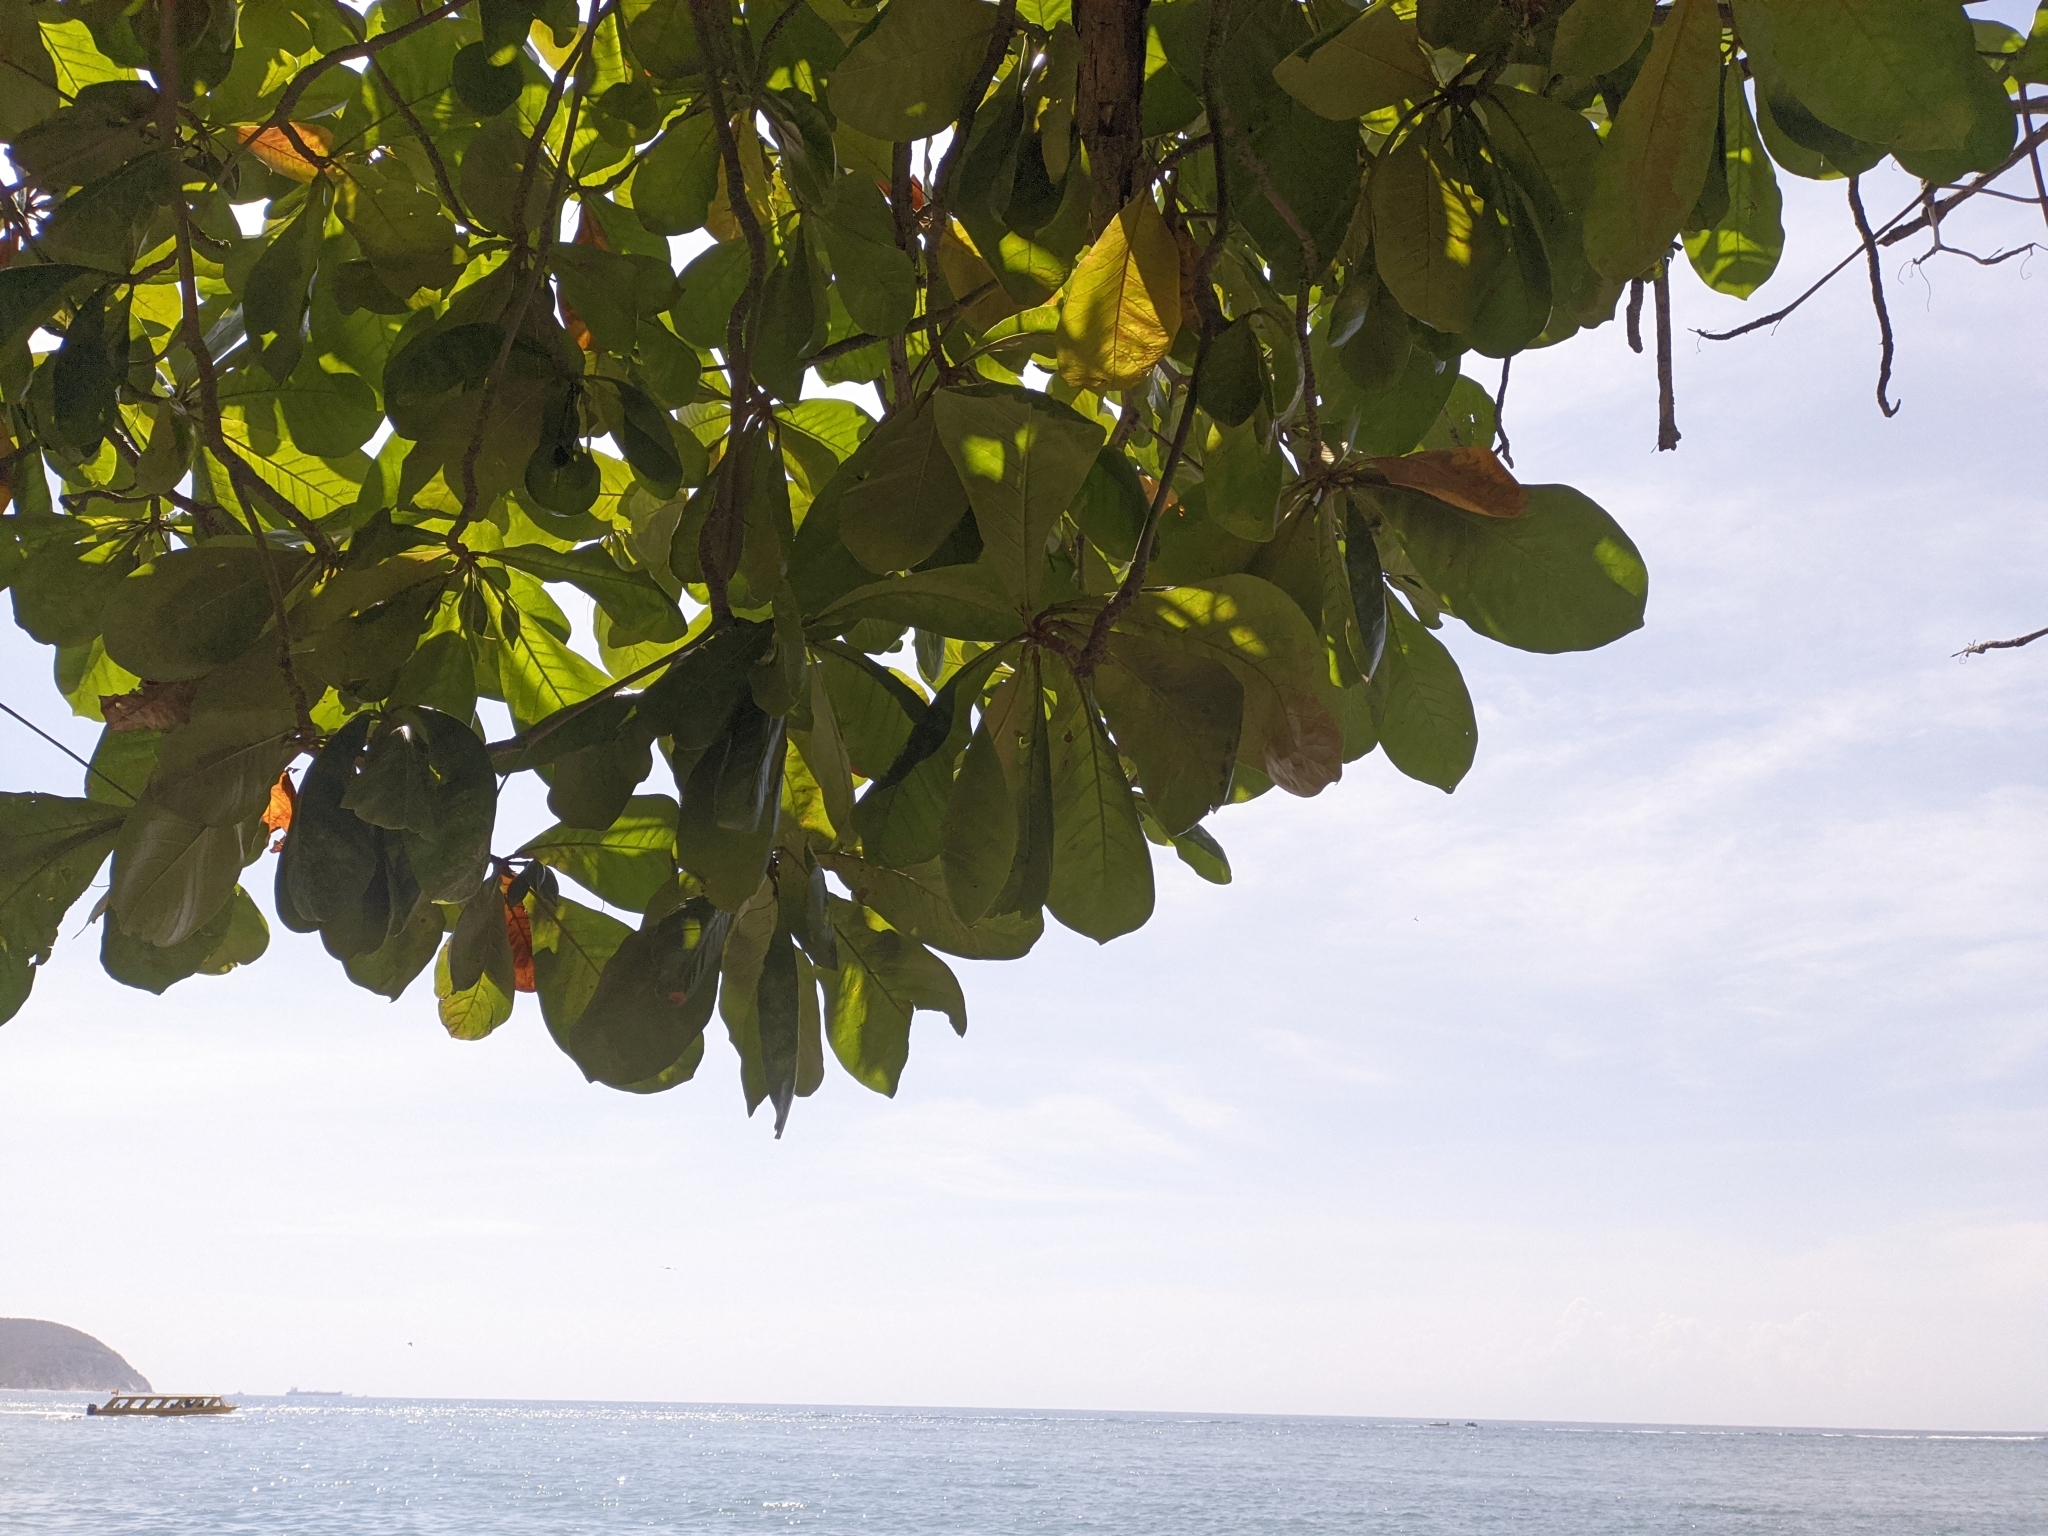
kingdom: Plantae
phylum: Tracheophyta
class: Magnoliopsida
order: Myrtales
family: Combretaceae
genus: Terminalia
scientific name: Terminalia catappa
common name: Tropical almond
